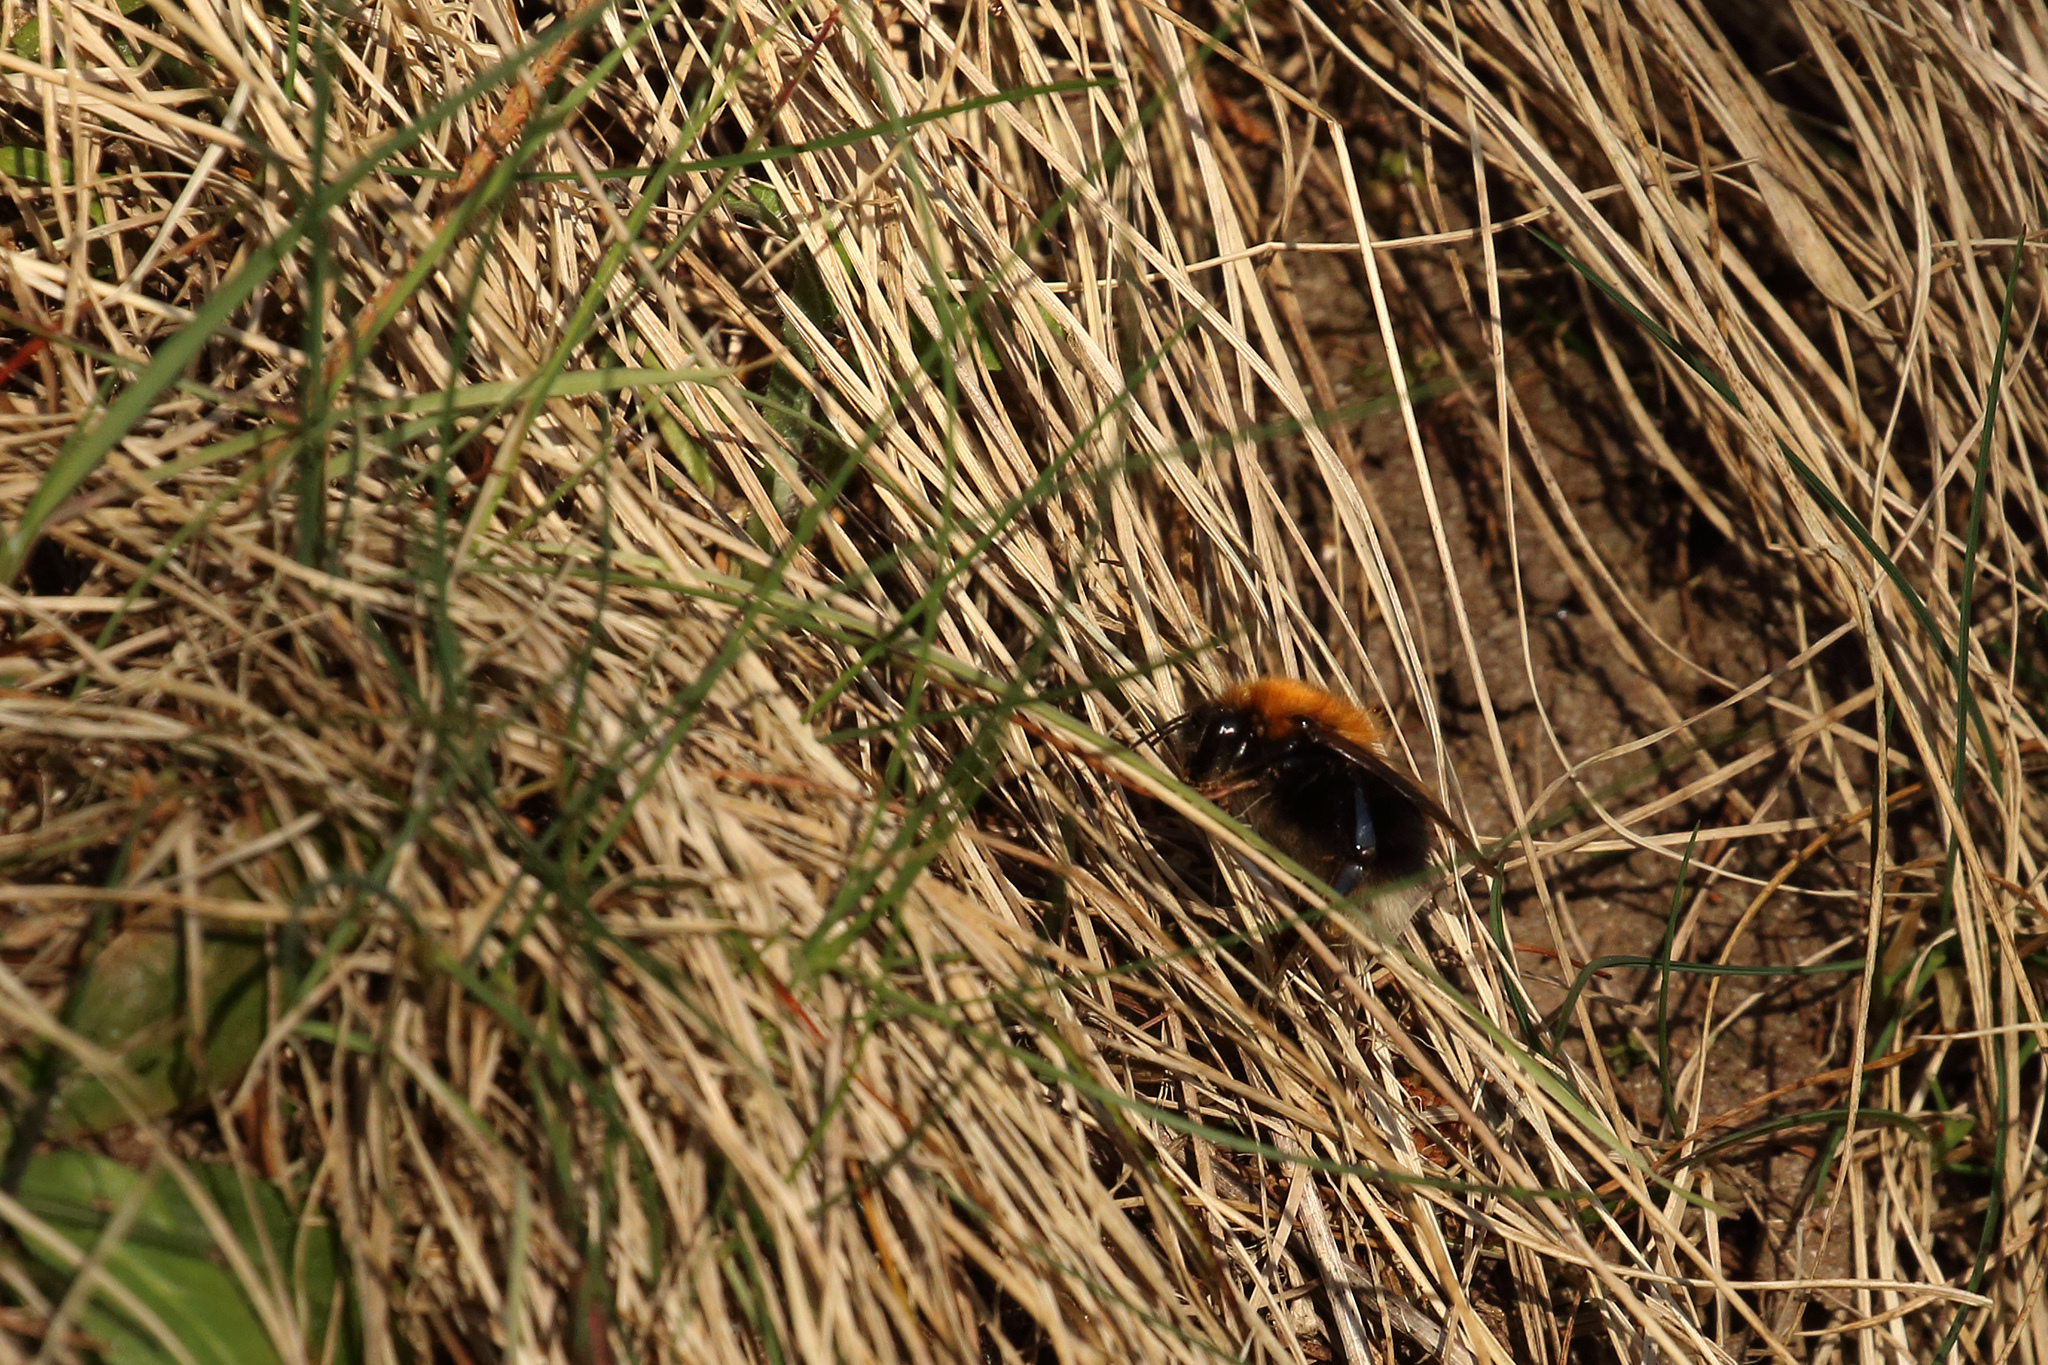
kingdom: Animalia
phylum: Arthropoda
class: Insecta
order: Hymenoptera
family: Apidae
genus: Bombus
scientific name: Bombus hypnorum
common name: New garden bumblebee
